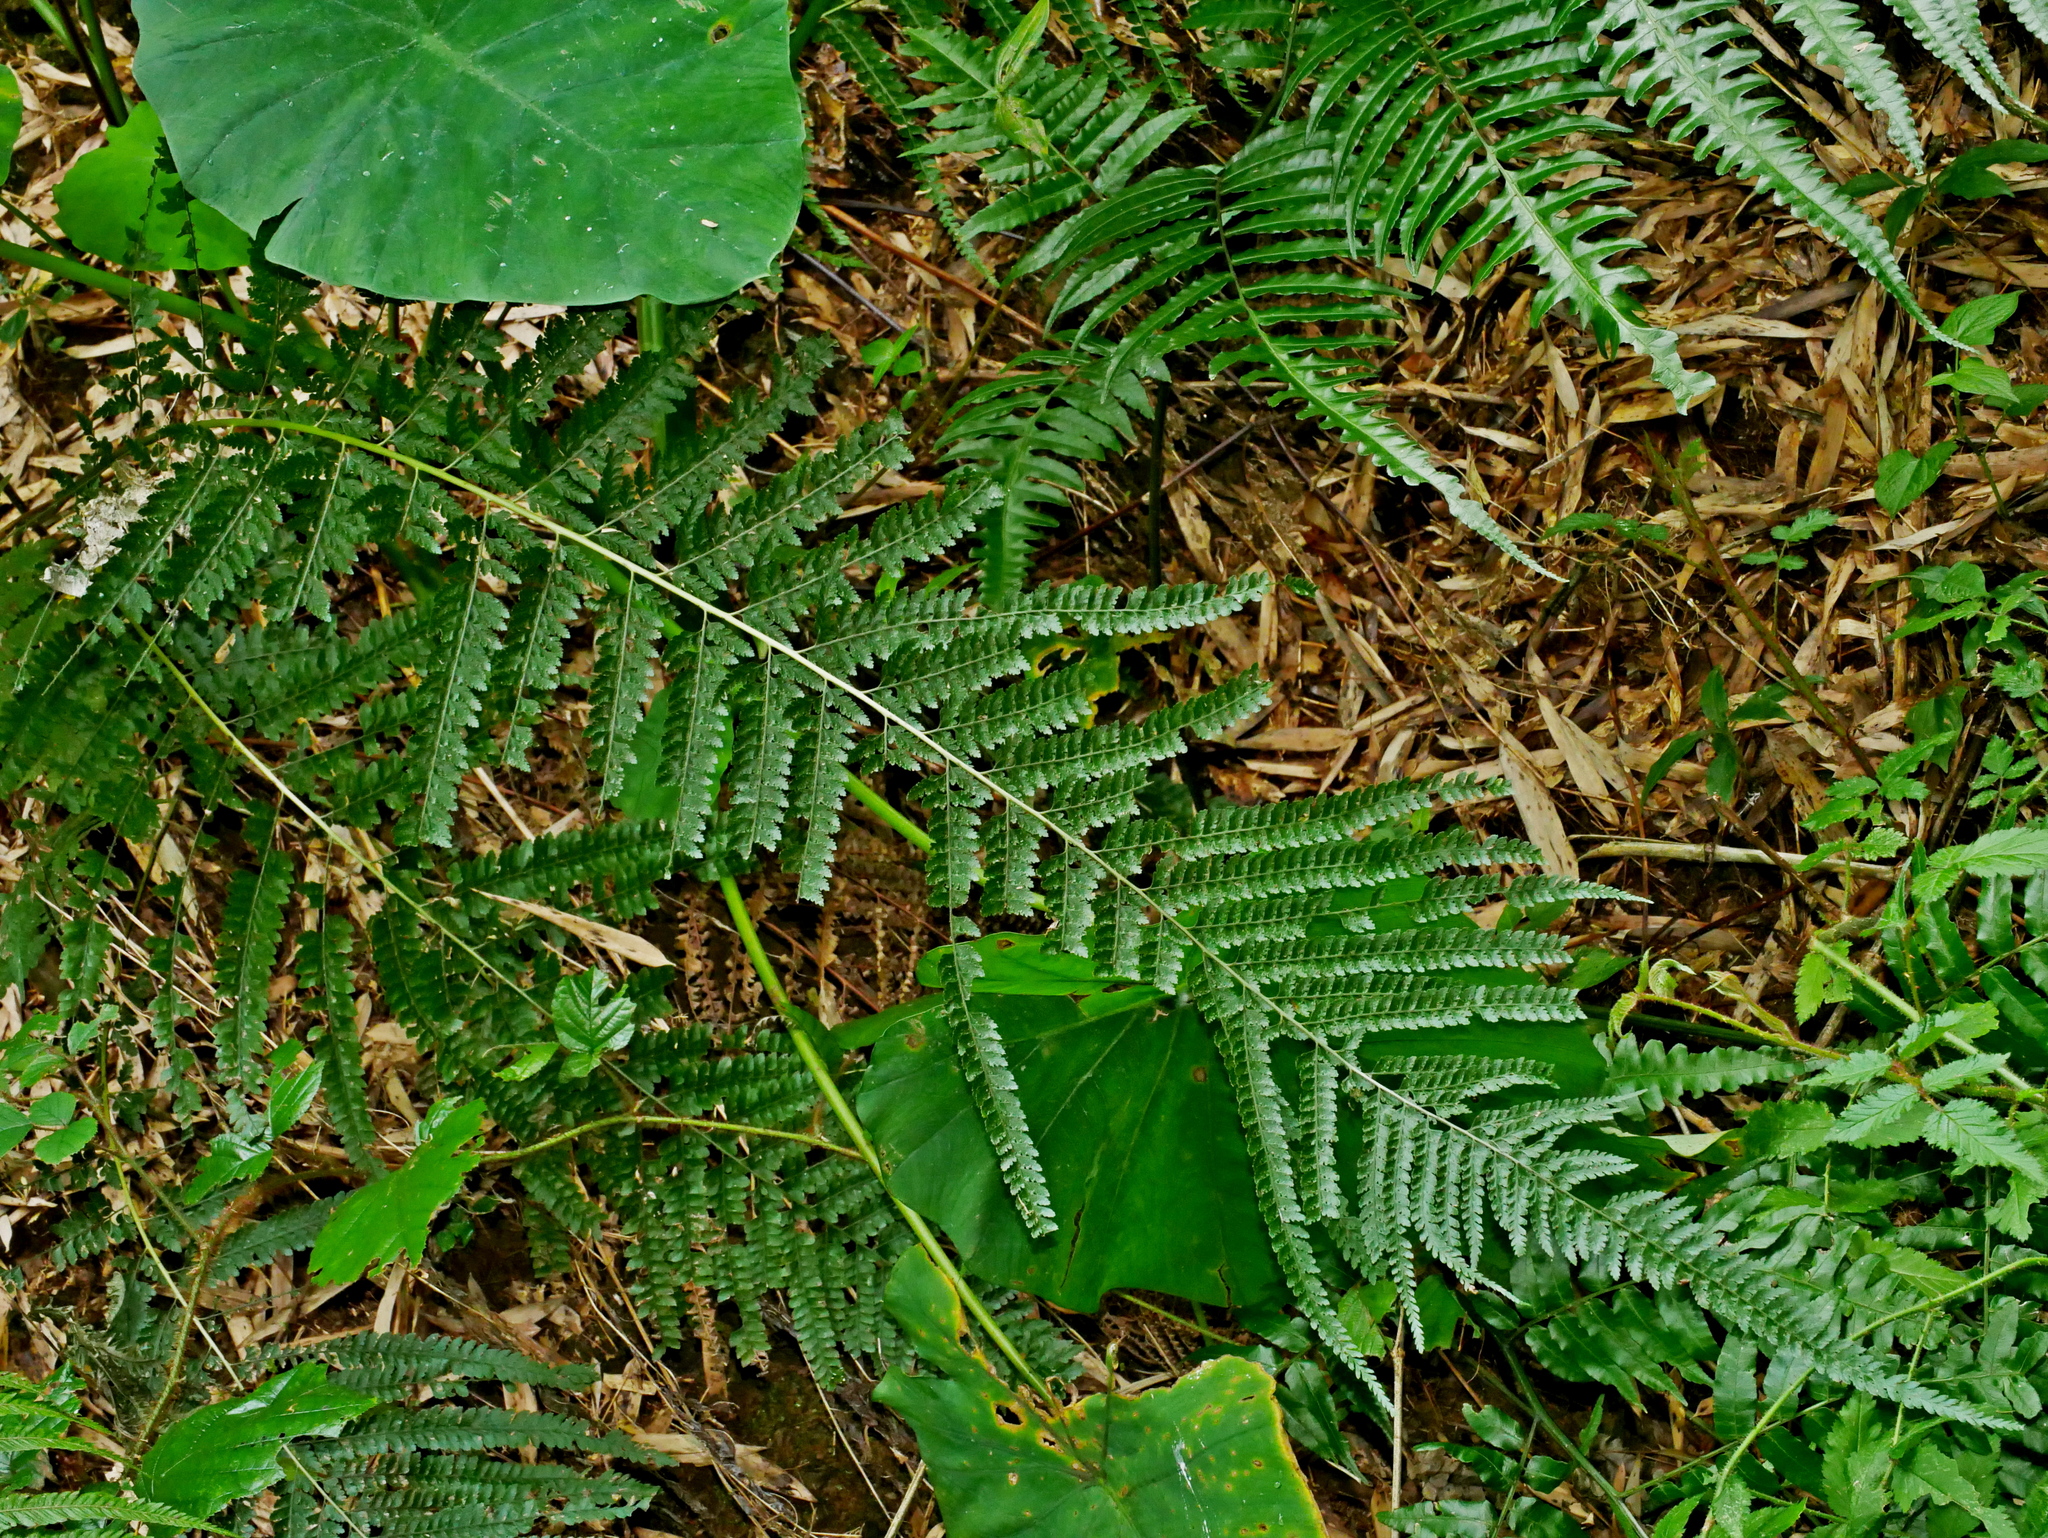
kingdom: Plantae
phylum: Tracheophyta
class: Polypodiopsida
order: Polypodiales
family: Dennstaedtiaceae
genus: Microlepia
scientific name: Microlepia strigosa
